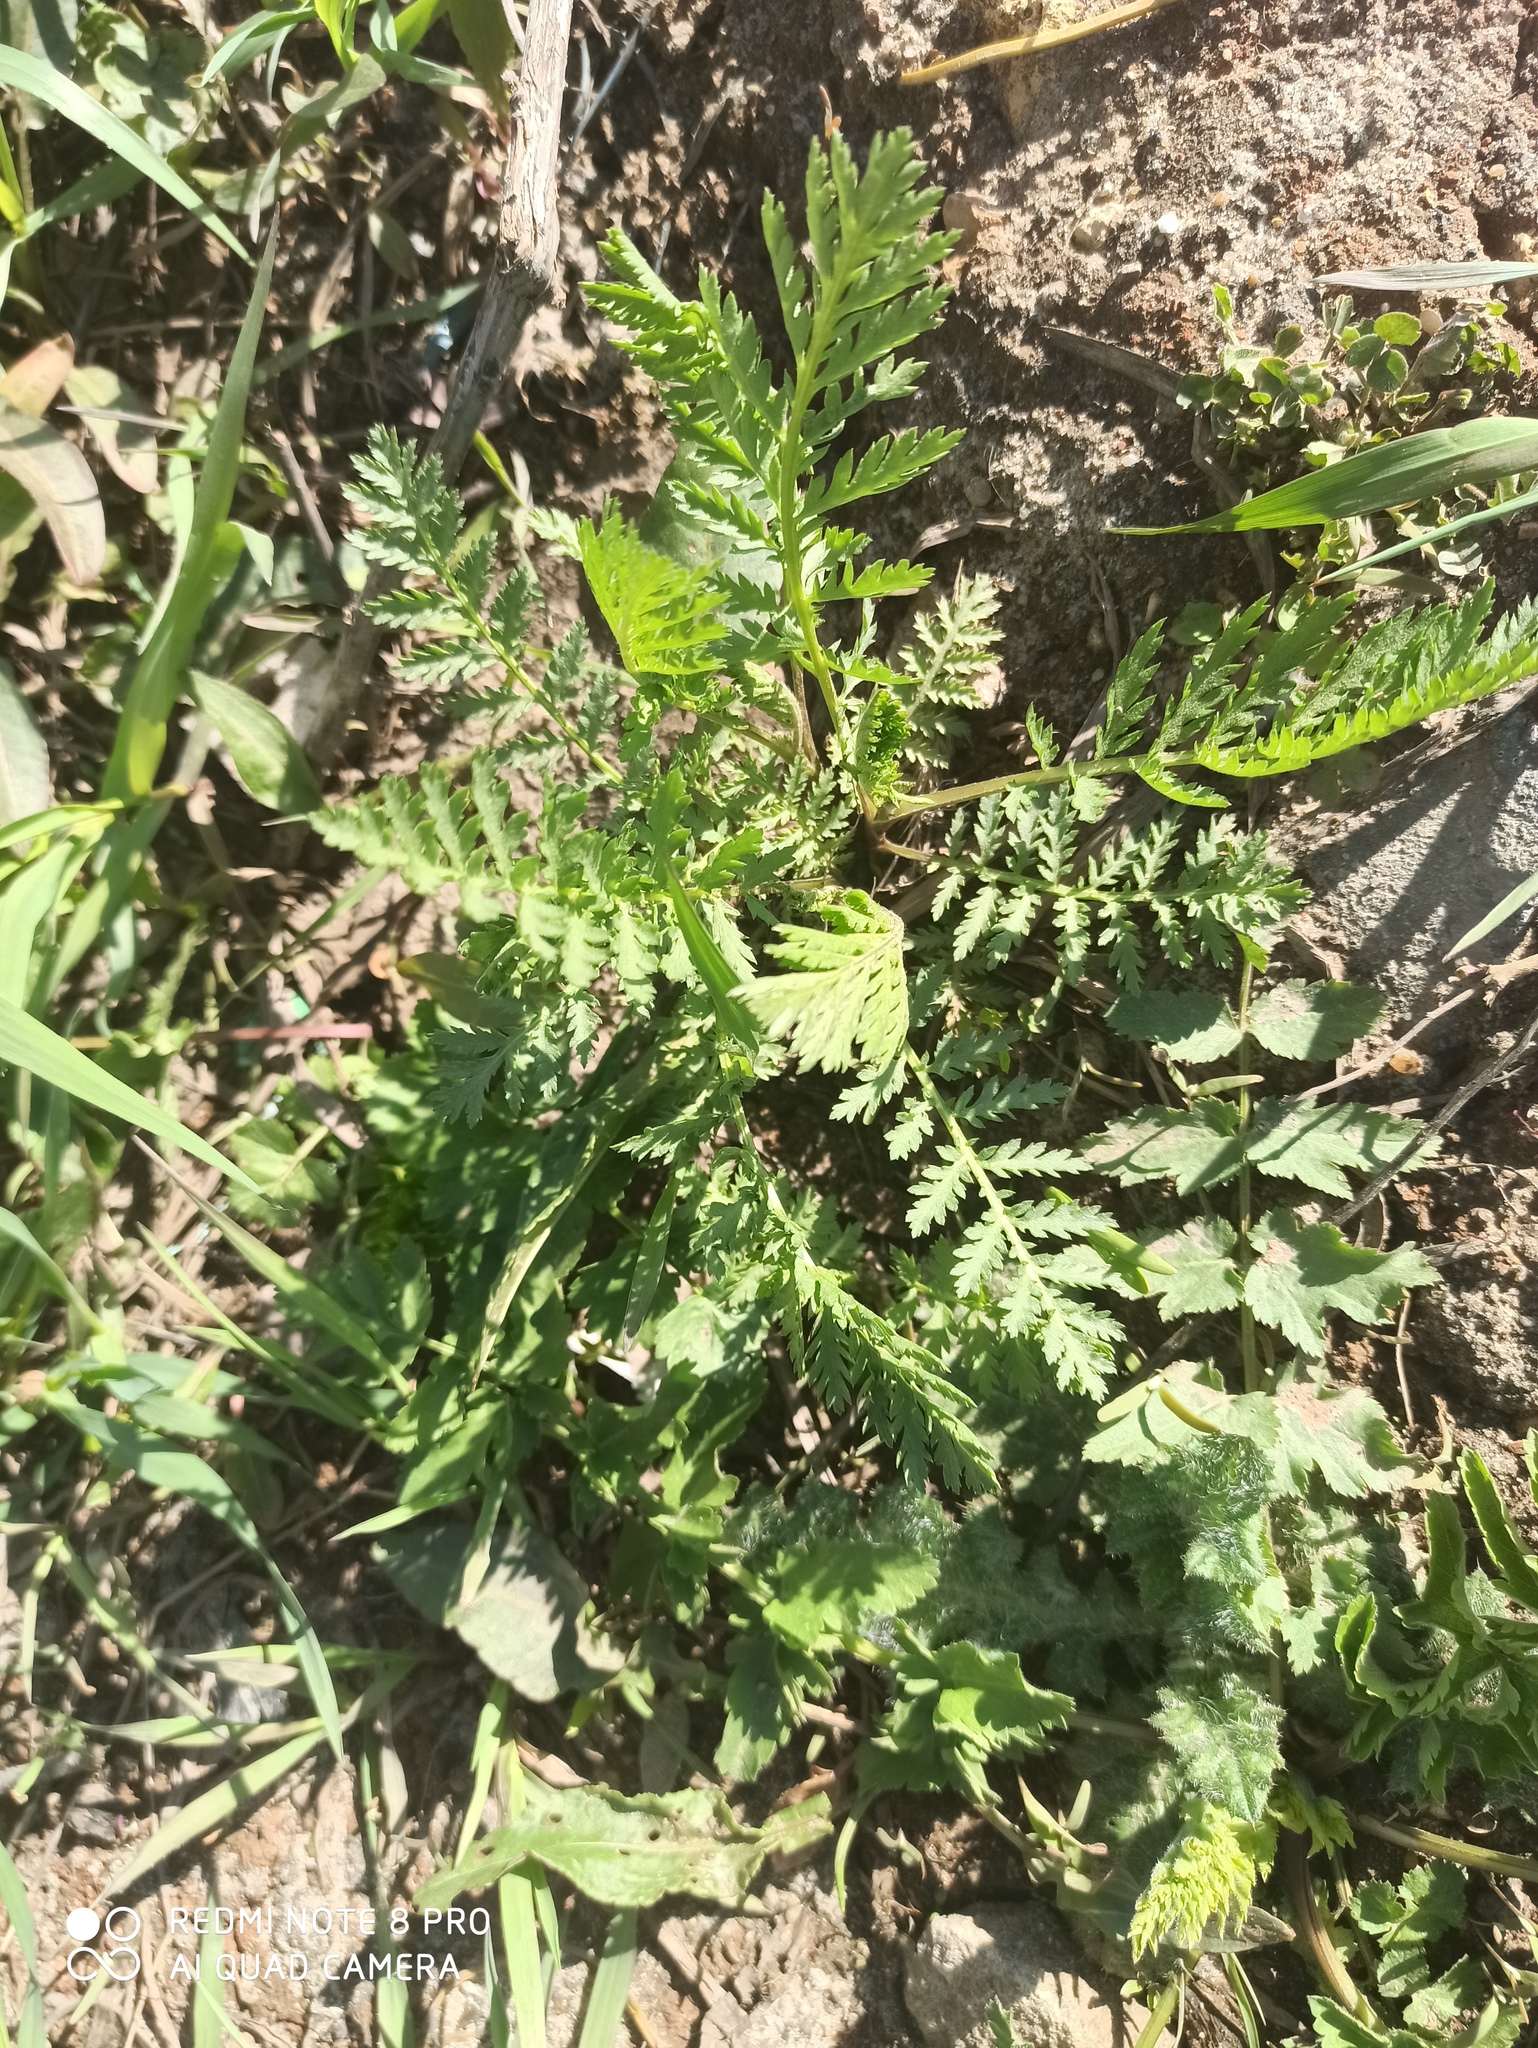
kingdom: Plantae
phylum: Tracheophyta
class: Magnoliopsida
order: Asterales
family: Asteraceae
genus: Tanacetum
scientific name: Tanacetum vulgare
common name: Common tansy
